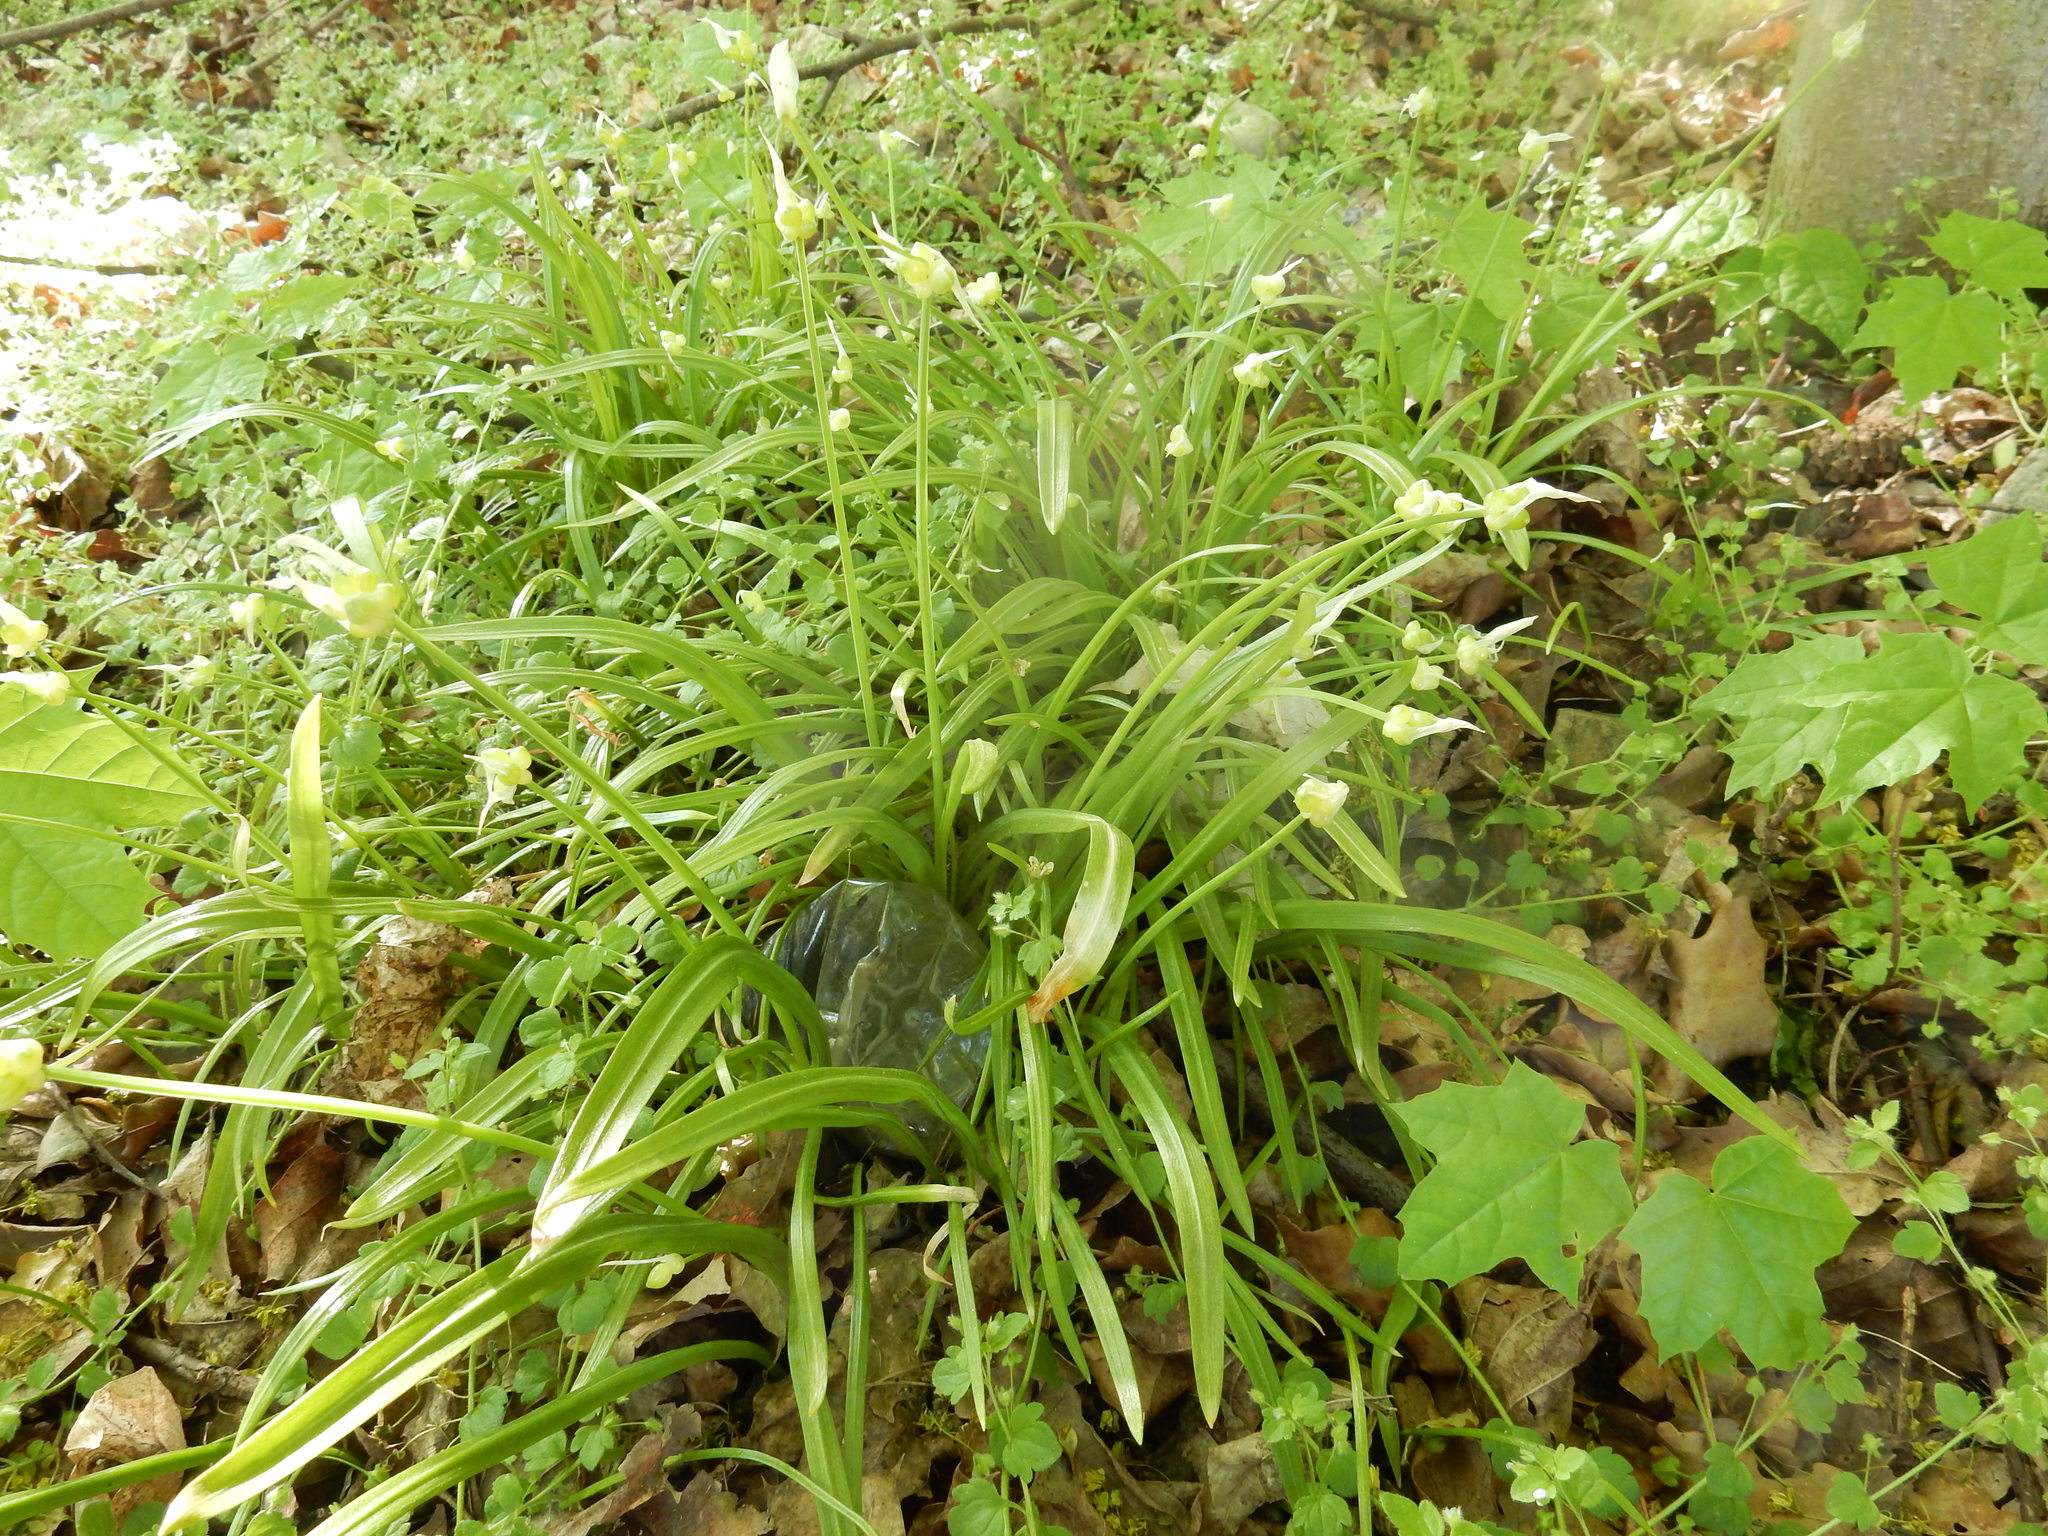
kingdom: Plantae
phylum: Tracheophyta
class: Liliopsida
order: Asparagales
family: Amaryllidaceae
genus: Allium
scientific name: Allium paradoxum
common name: Few-flowered garlic
